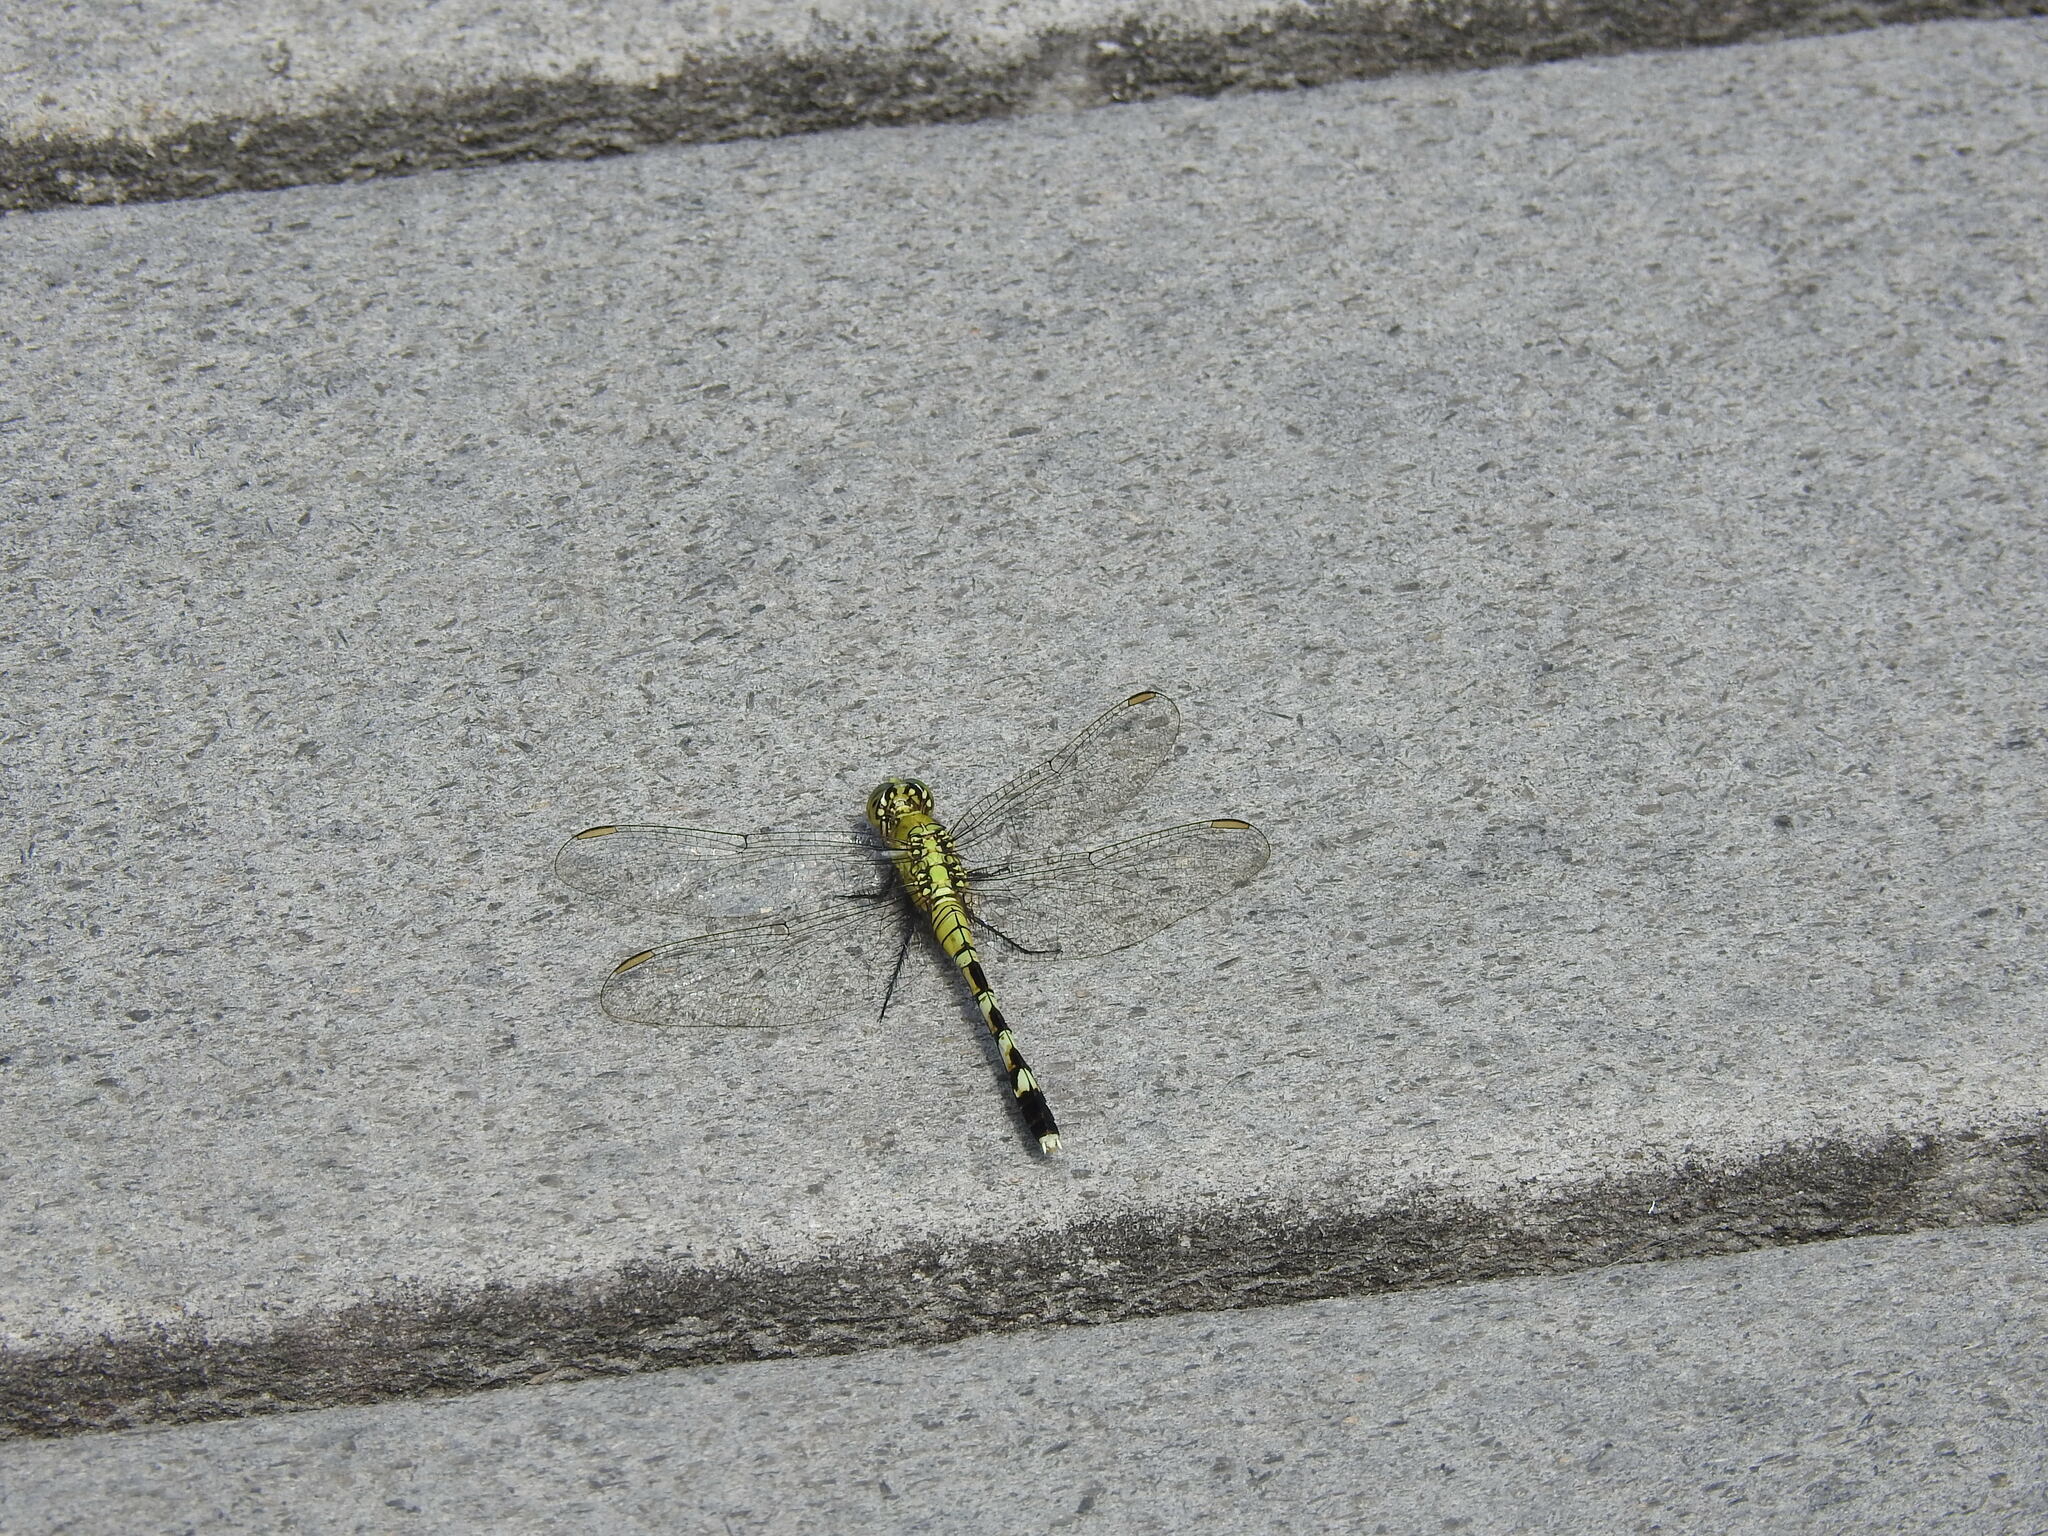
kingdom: Animalia
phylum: Arthropoda
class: Insecta
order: Odonata
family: Libellulidae
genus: Erythemis
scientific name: Erythemis simplicicollis
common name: Eastern pondhawk
